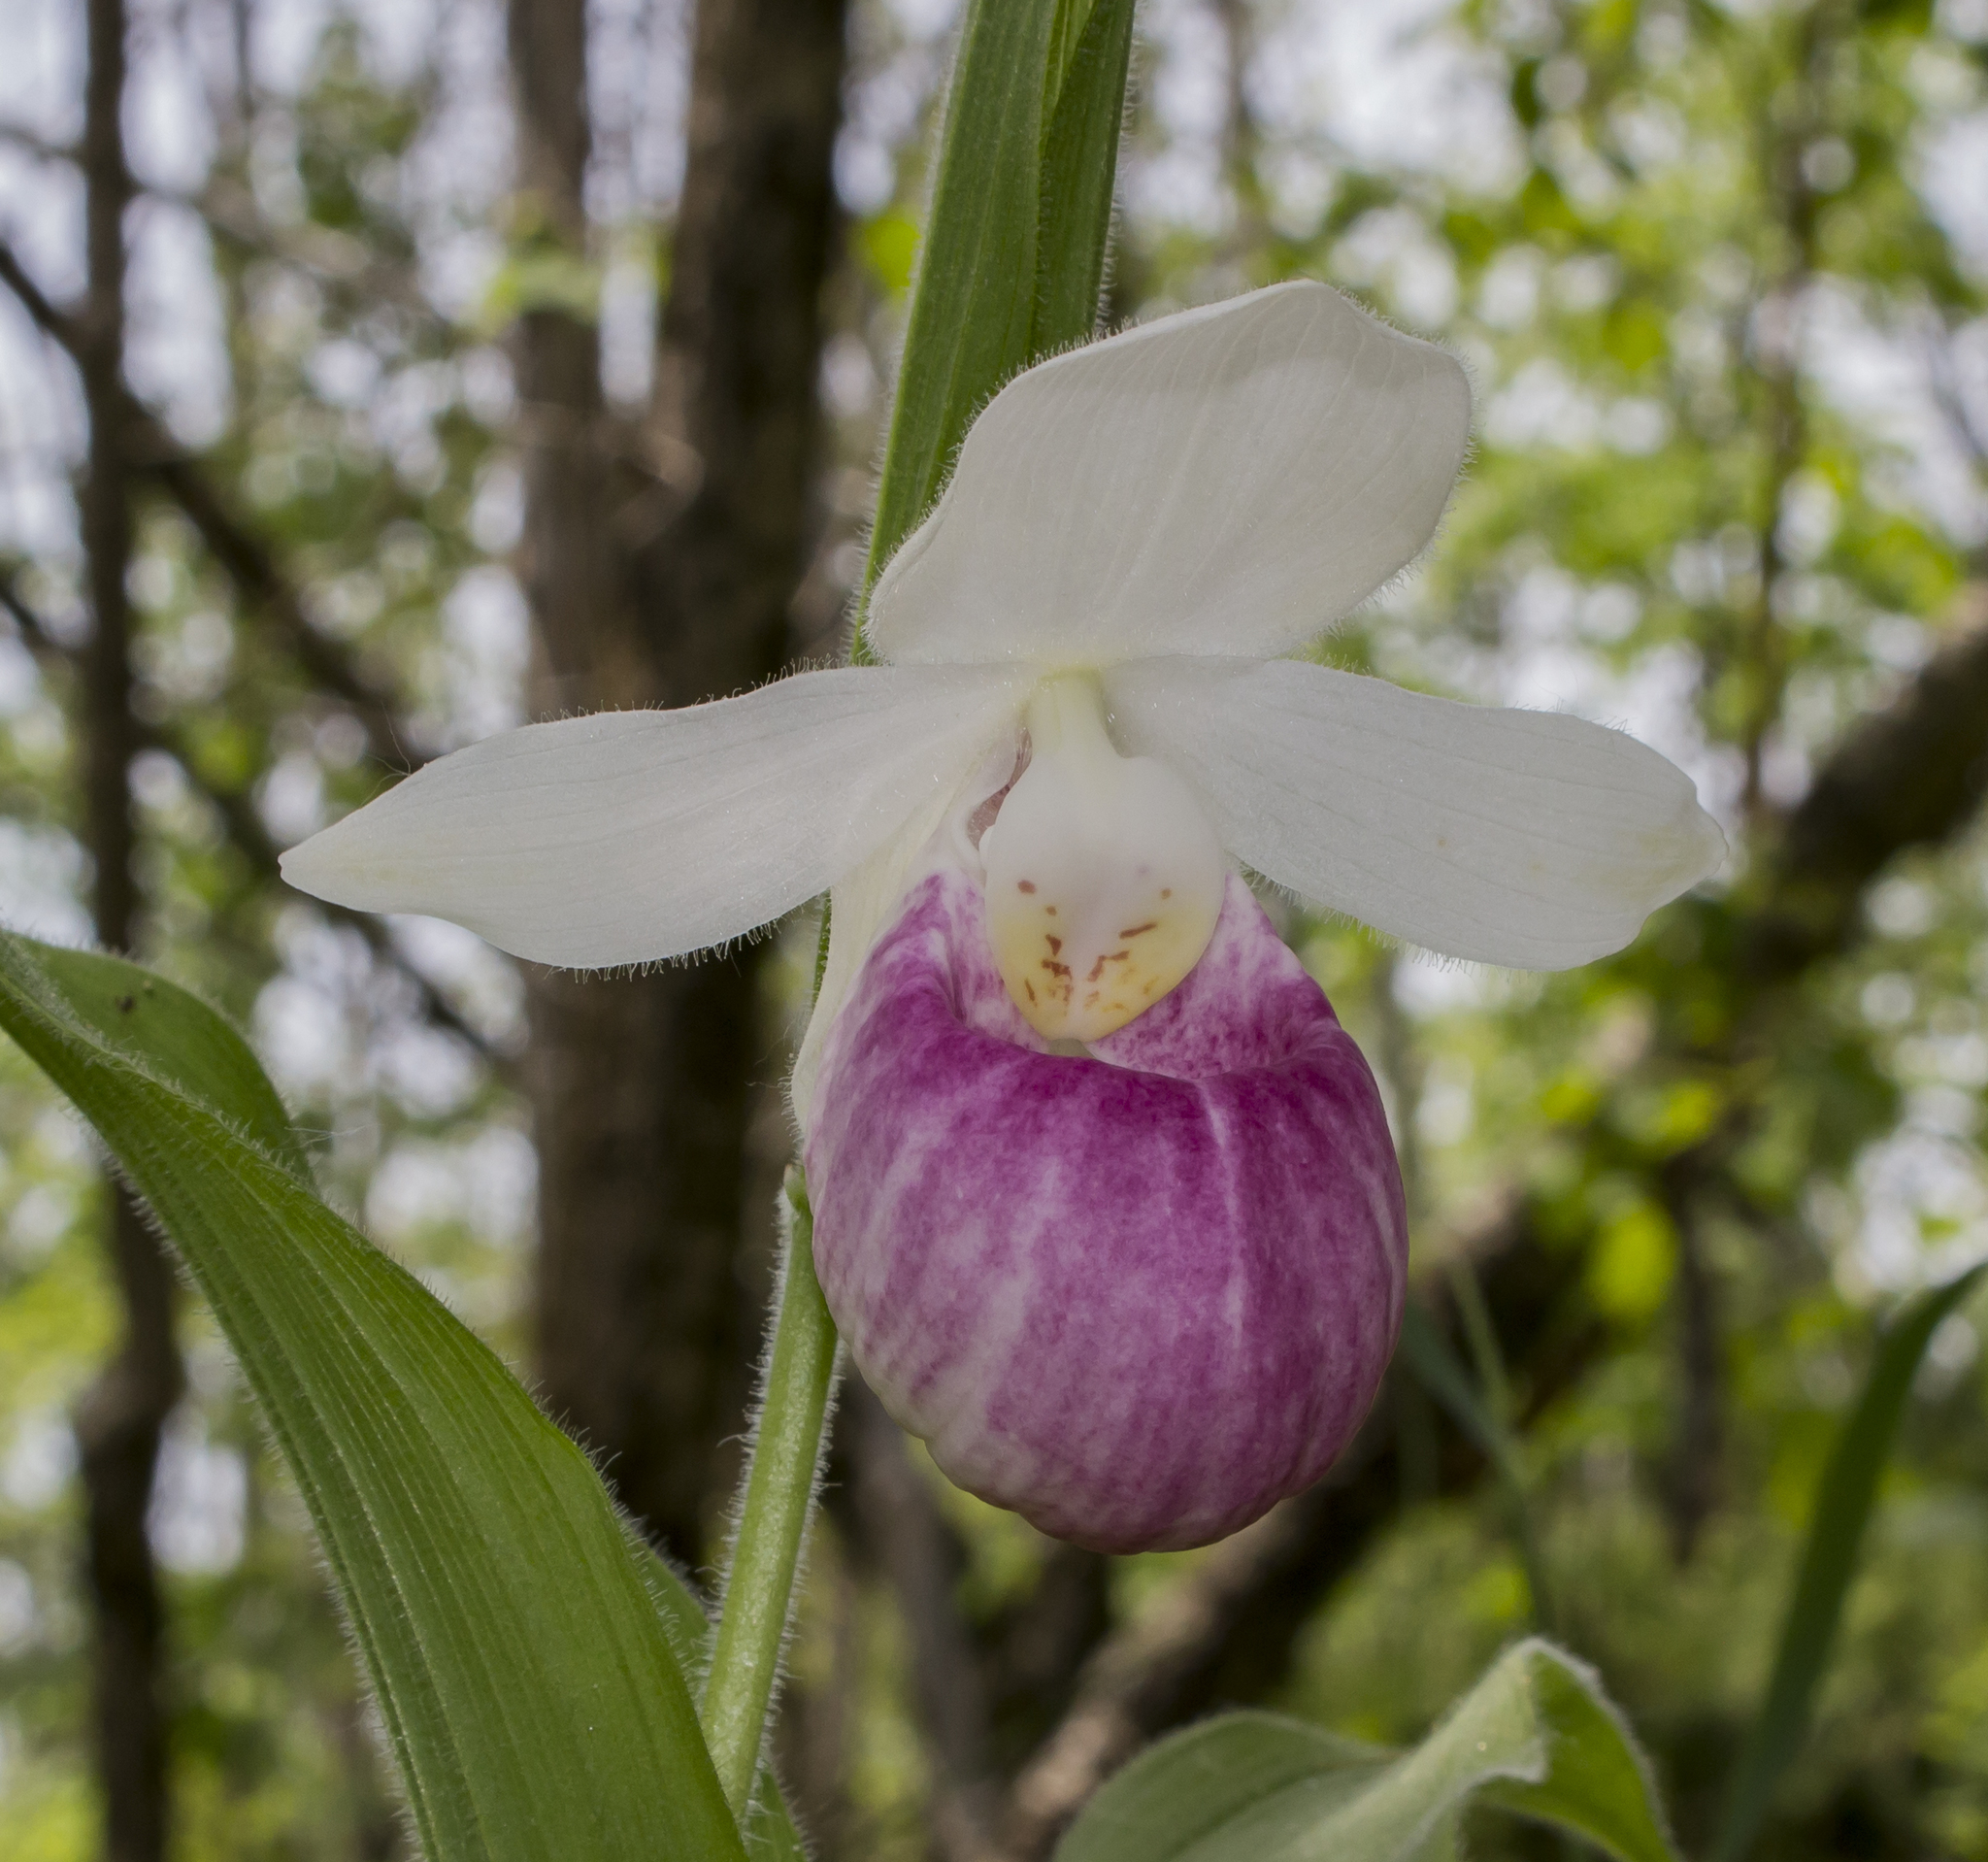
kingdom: Plantae
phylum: Tracheophyta
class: Liliopsida
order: Asparagales
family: Orchidaceae
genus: Cypripedium
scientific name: Cypripedium reginae
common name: Queen lady's-slipper
